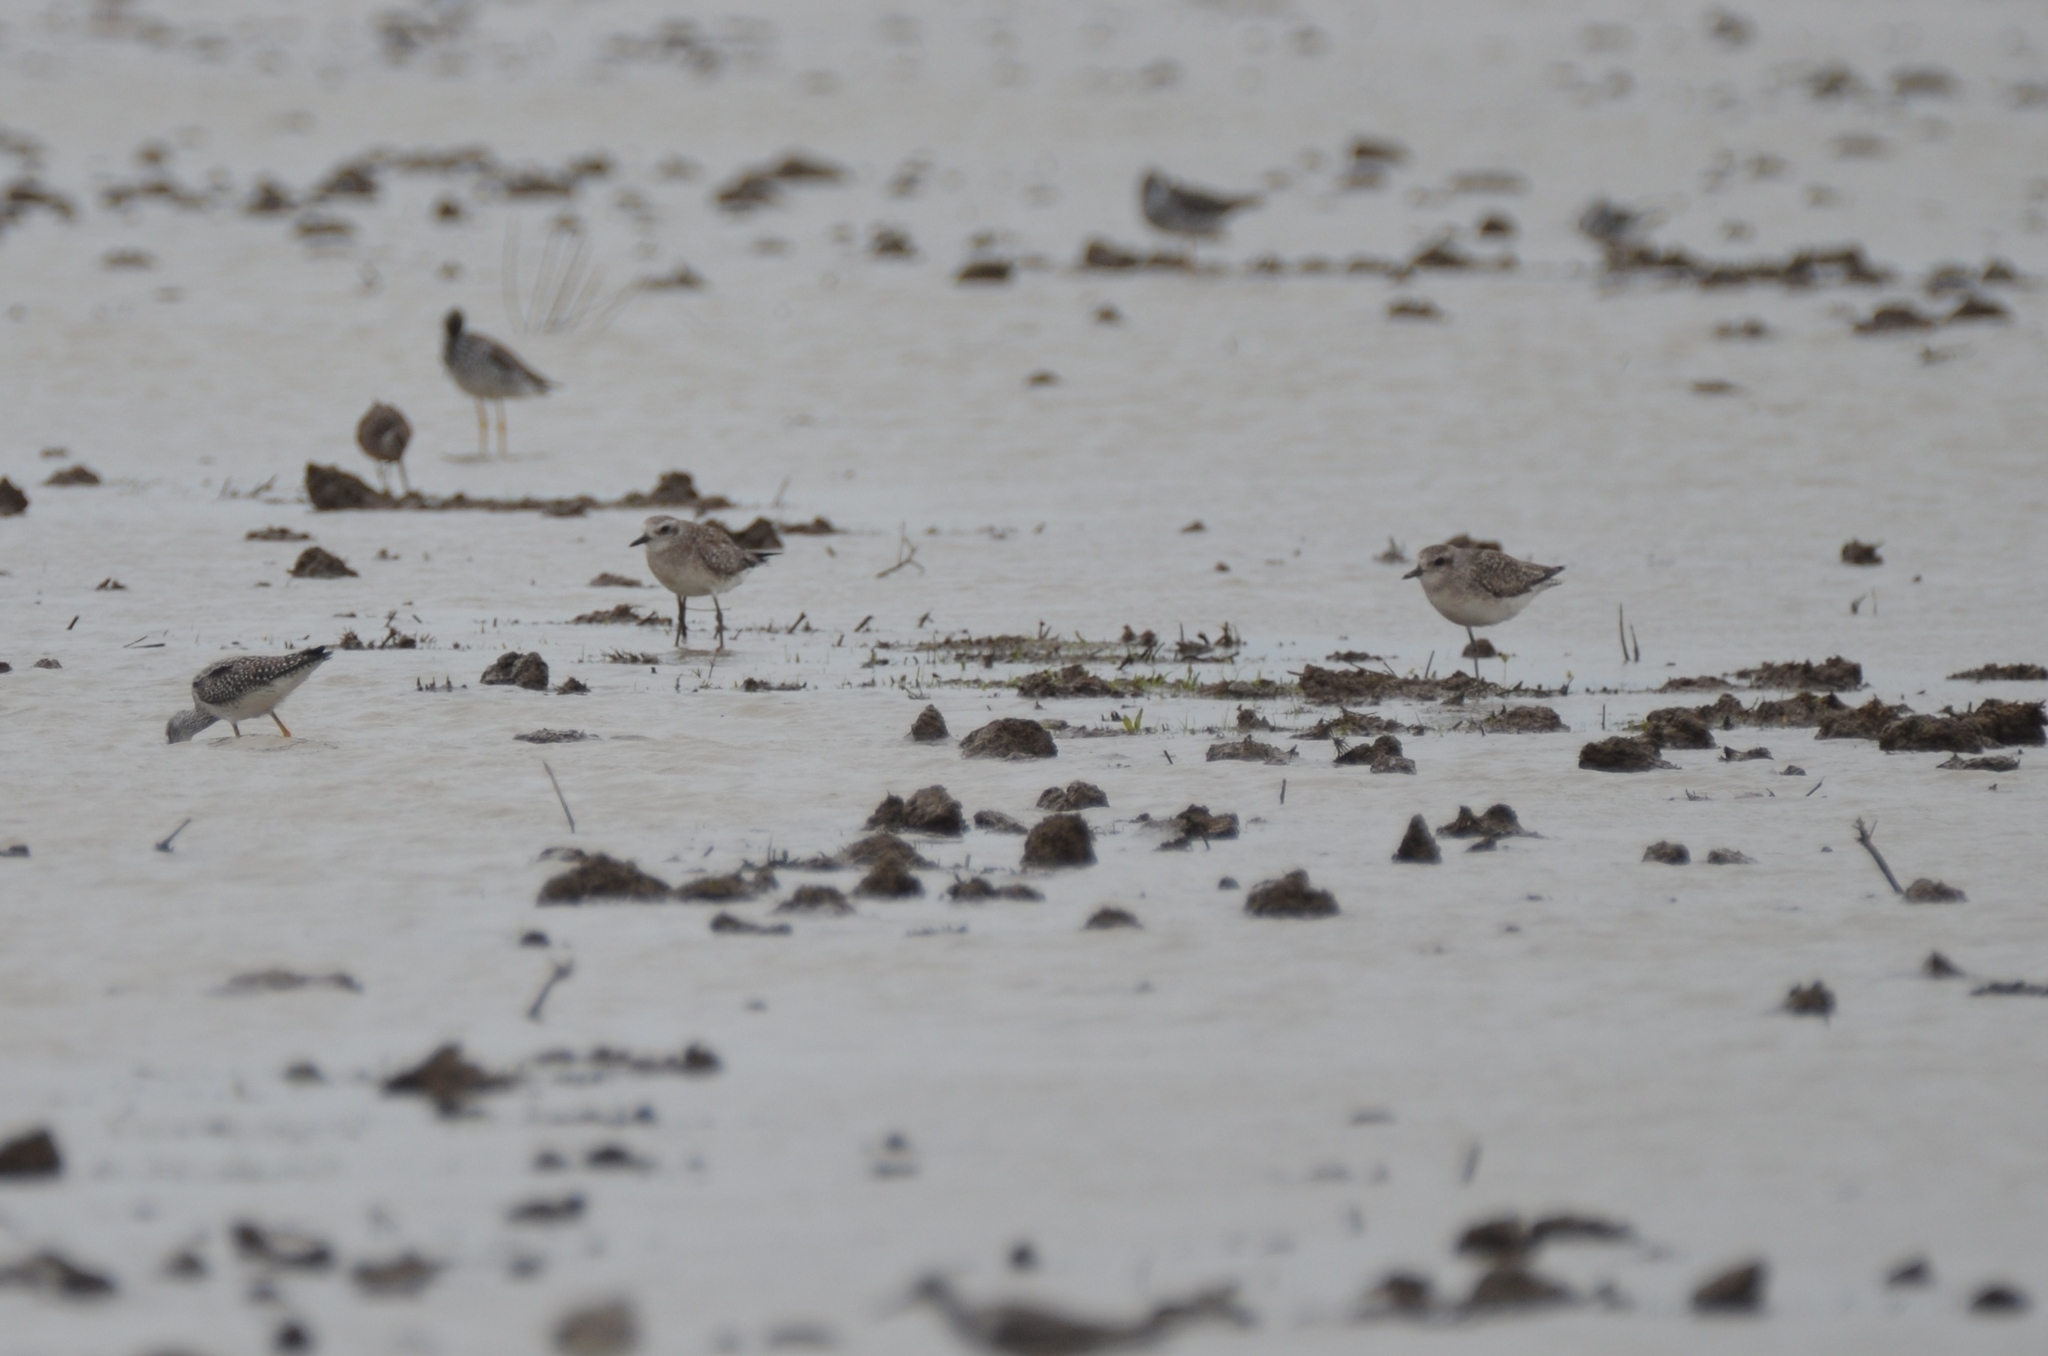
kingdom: Animalia
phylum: Chordata
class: Aves
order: Charadriiformes
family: Charadriidae
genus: Pluvialis
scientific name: Pluvialis squatarola
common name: Grey plover
